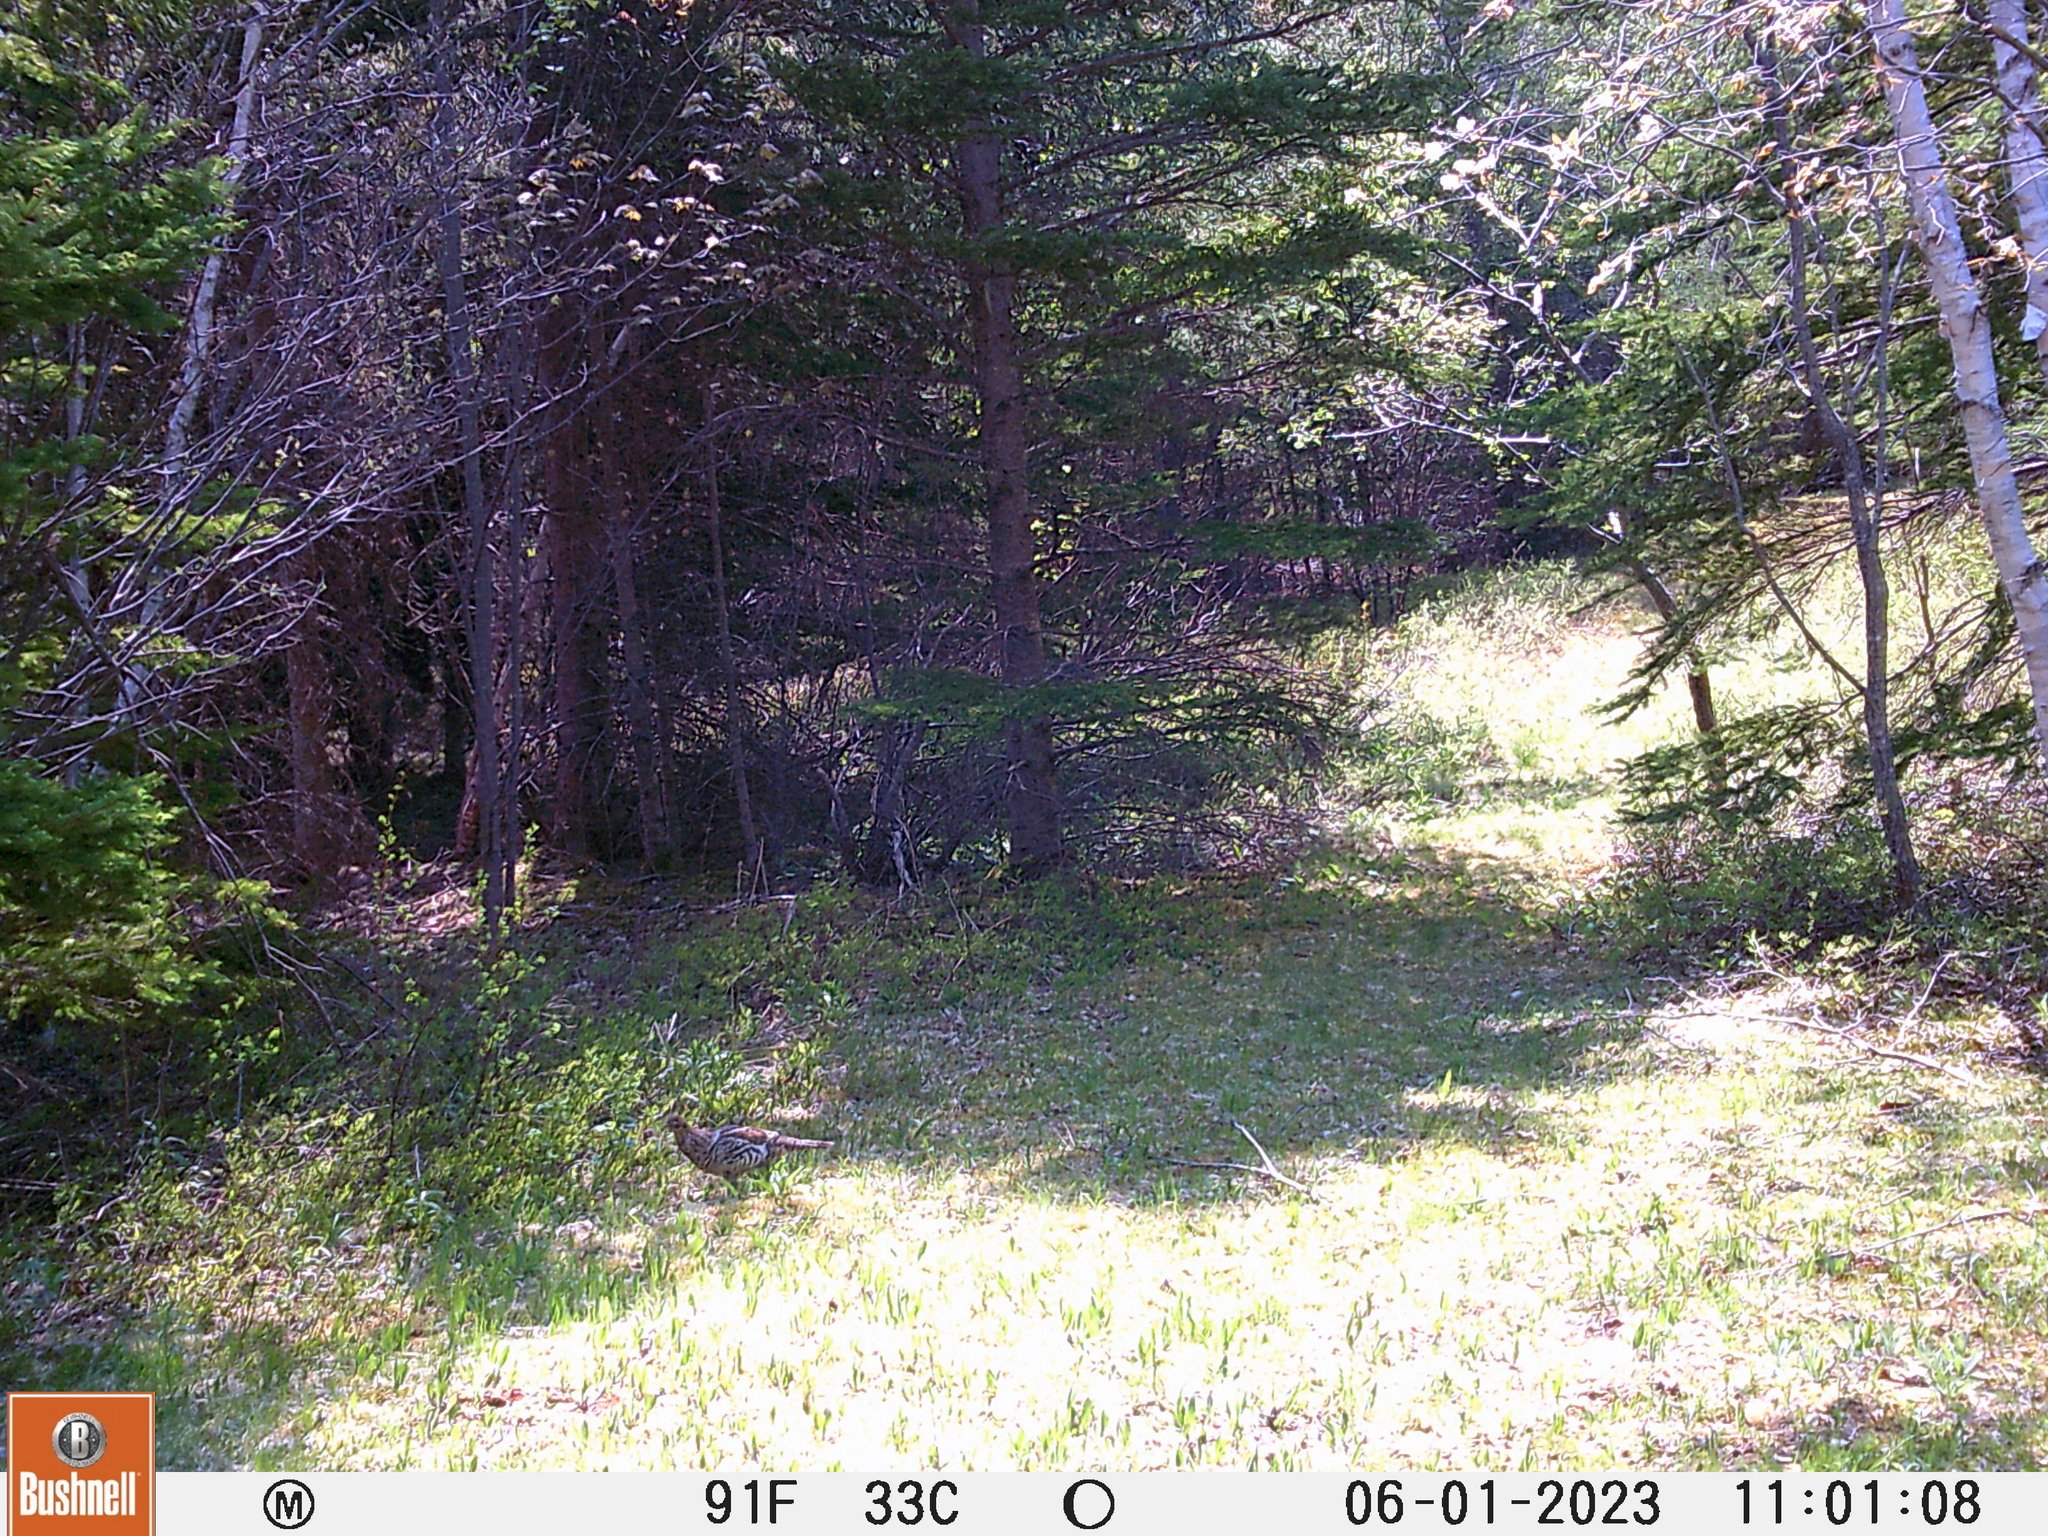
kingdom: Animalia
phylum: Chordata
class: Aves
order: Galliformes
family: Phasianidae
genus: Bonasa
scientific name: Bonasa umbellus
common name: Ruffed grouse
